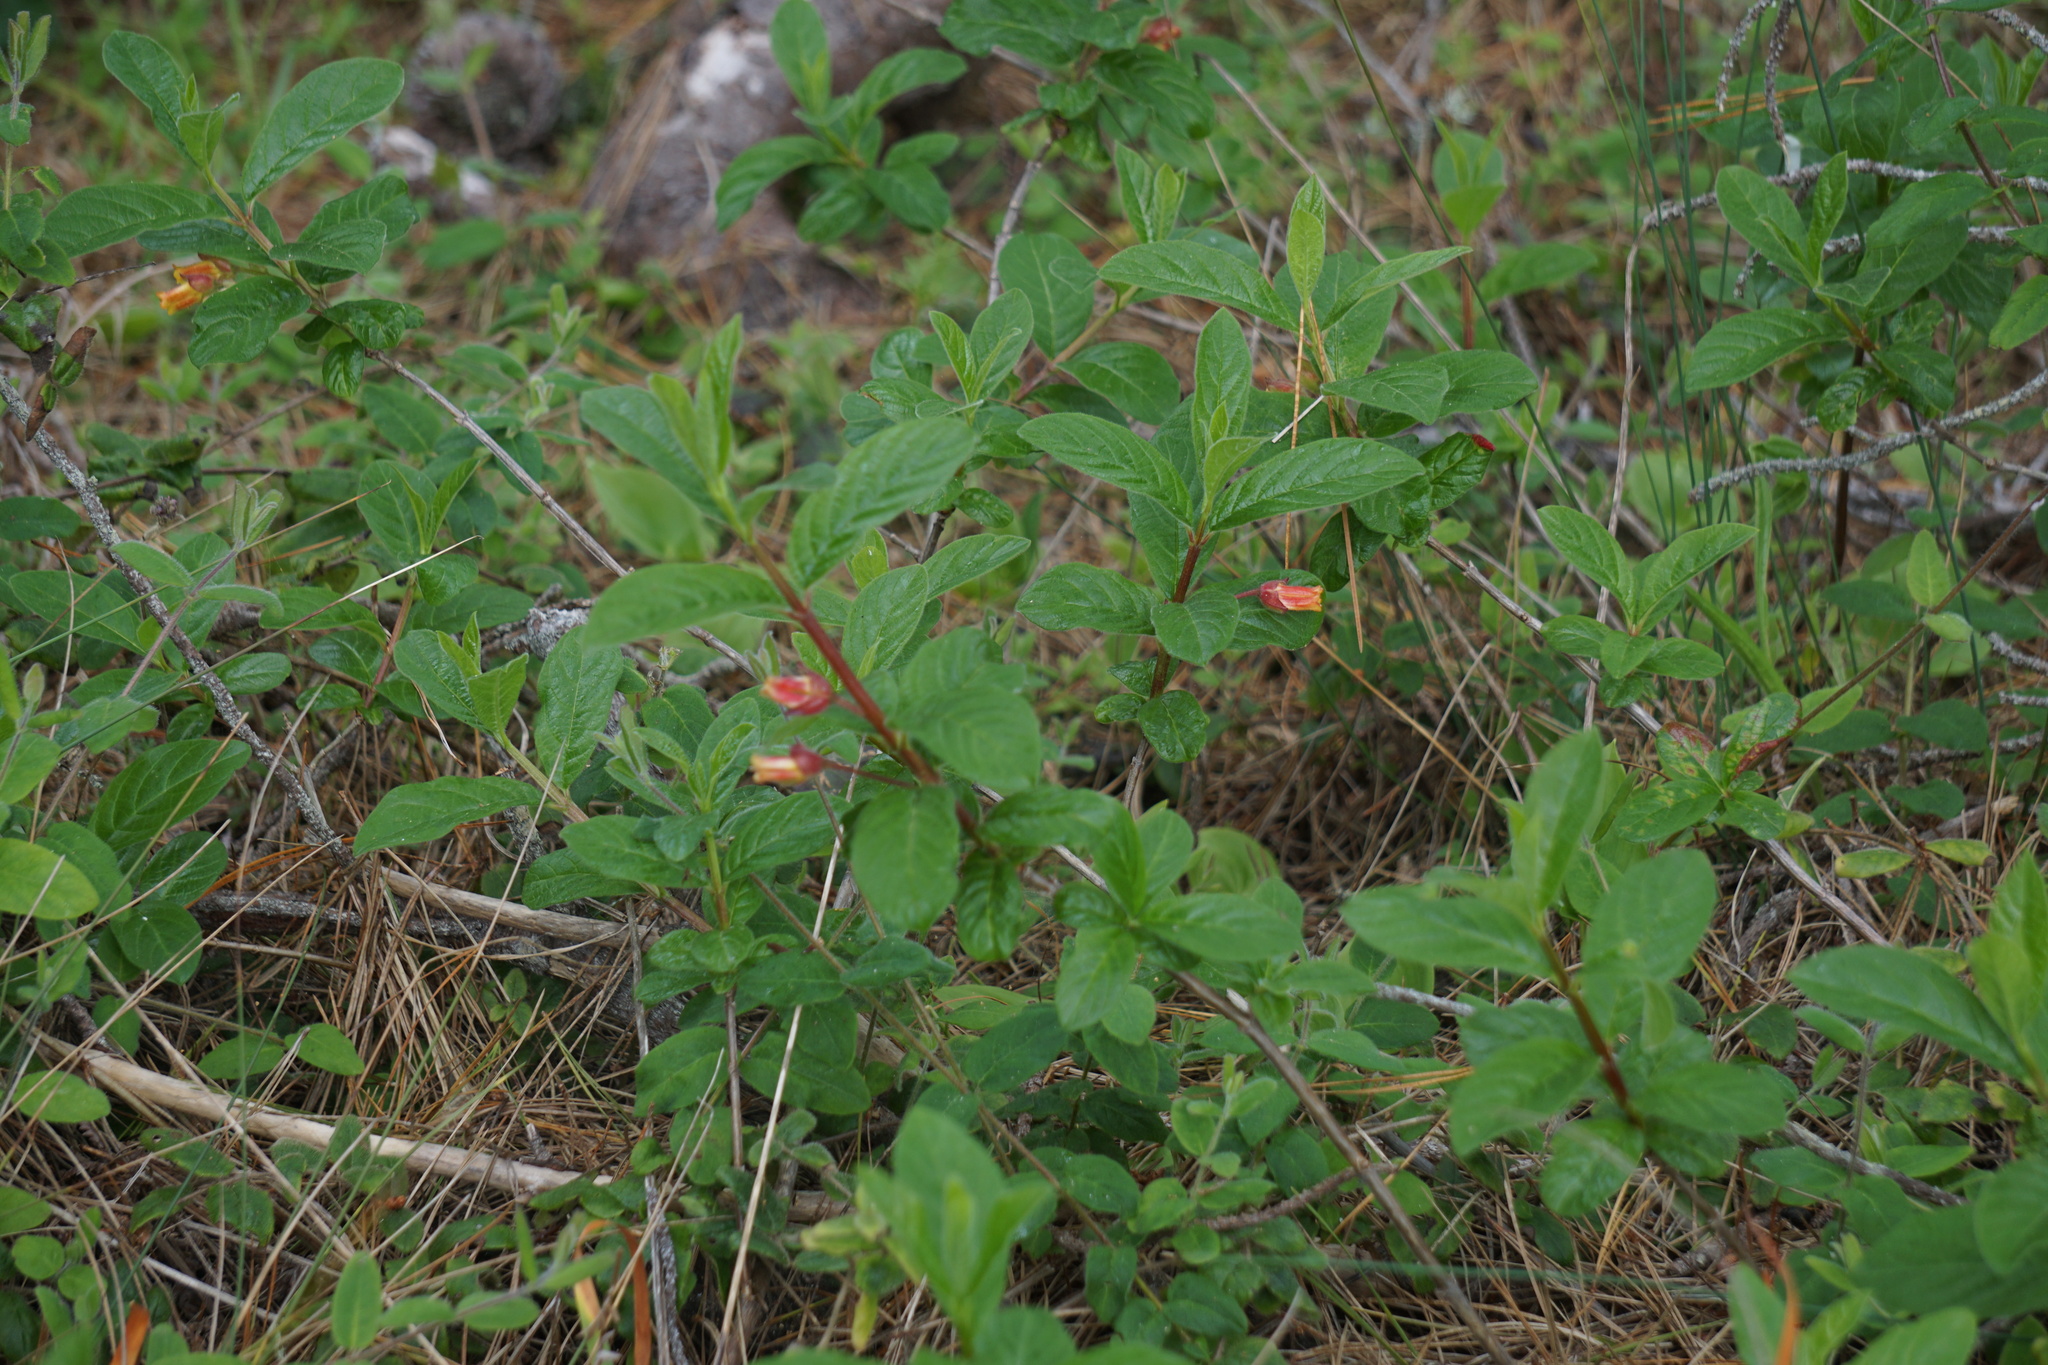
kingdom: Plantae
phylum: Tracheophyta
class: Magnoliopsida
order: Dipsacales
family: Caprifoliaceae
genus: Lonicera
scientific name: Lonicera involucrata
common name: Californian honeysuckle
